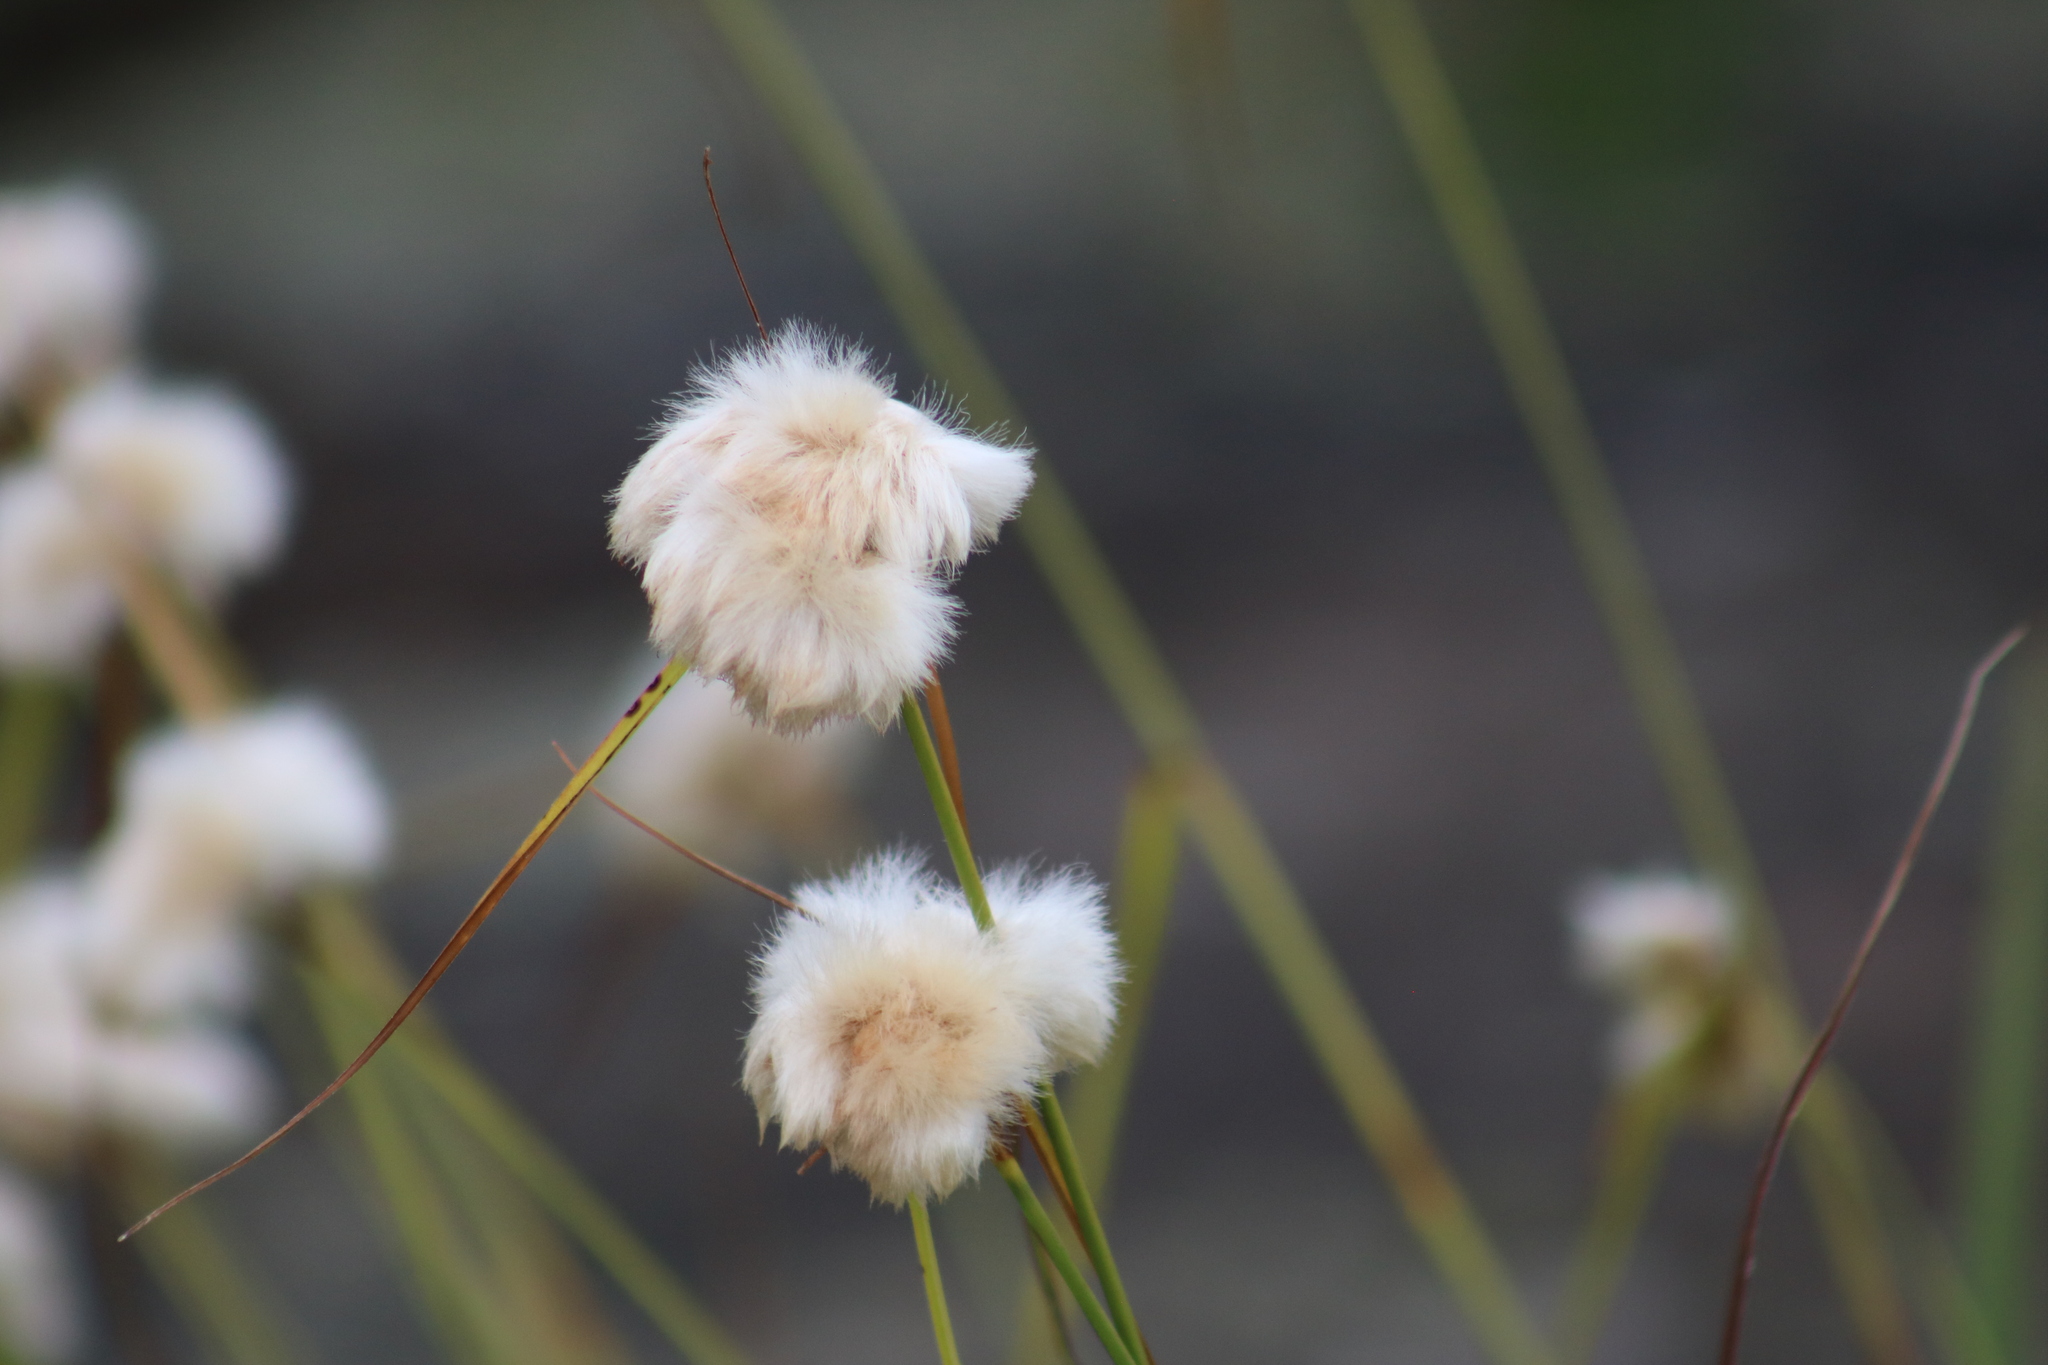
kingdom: Plantae
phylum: Tracheophyta
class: Liliopsida
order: Poales
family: Cyperaceae
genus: Eriophorum
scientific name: Eriophorum virginicum
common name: Tawny cottongrass
